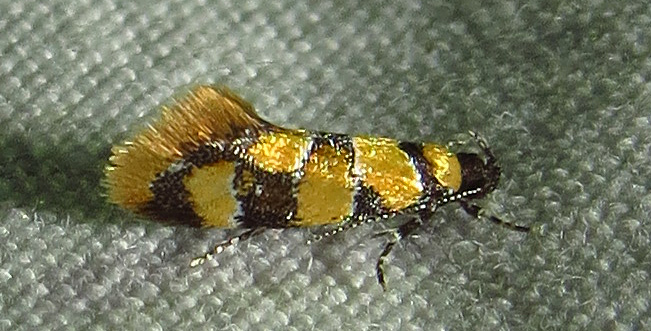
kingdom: Animalia
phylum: Arthropoda
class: Insecta
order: Lepidoptera
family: Oecophoridae
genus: Decantha
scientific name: Decantha borkhausenii
